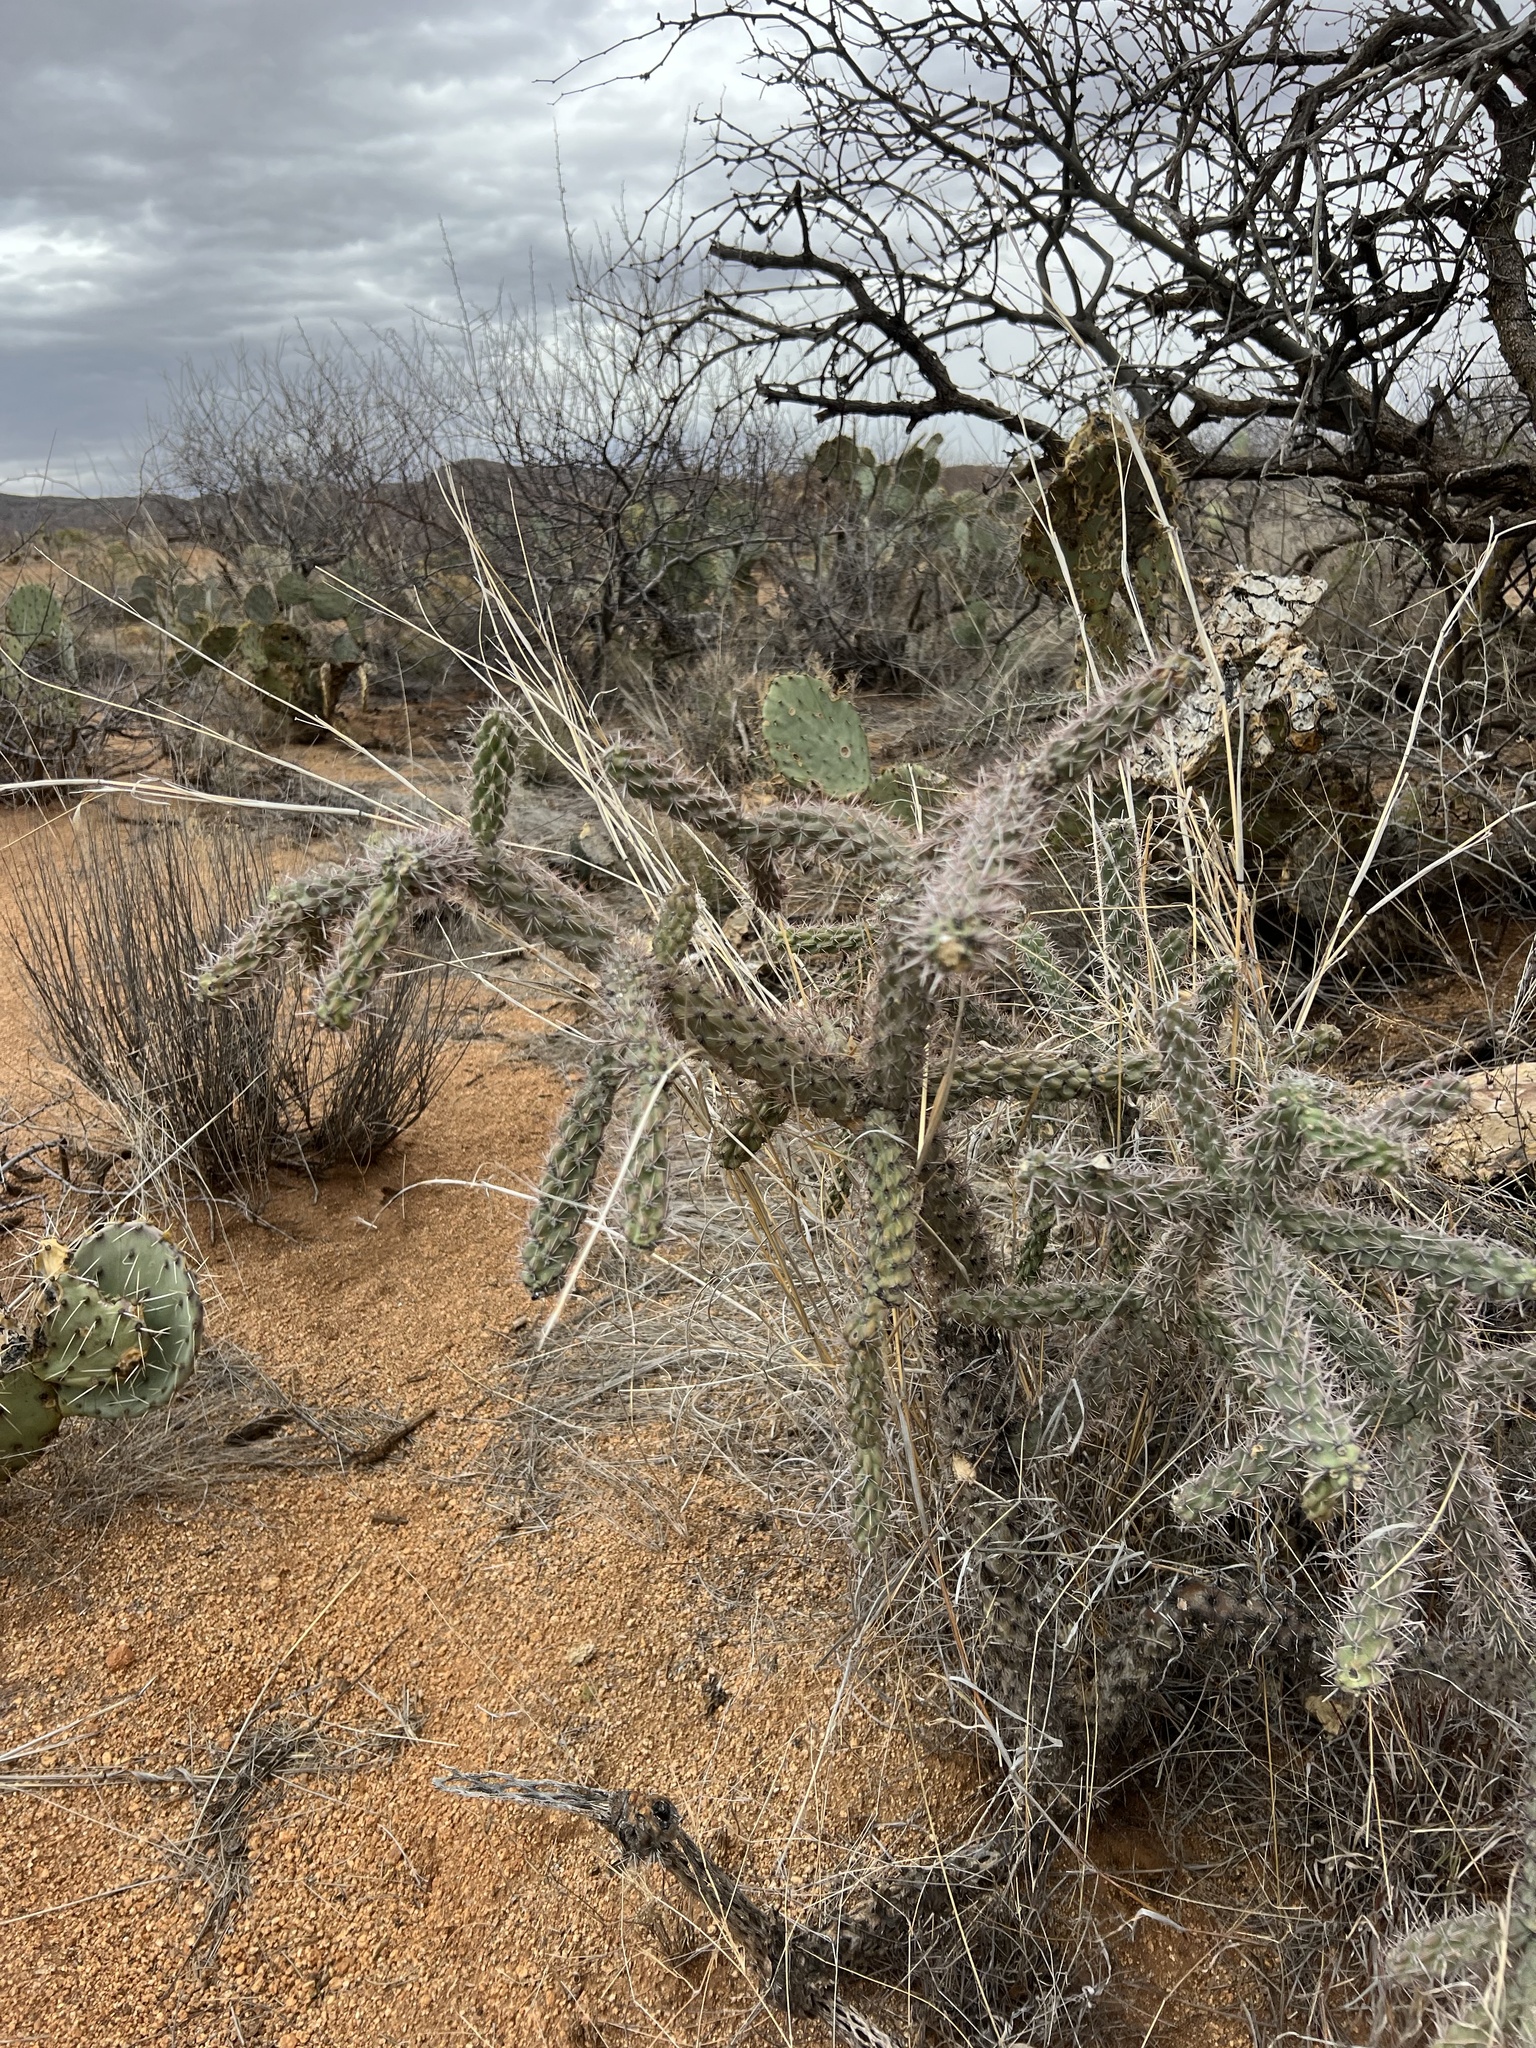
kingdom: Plantae
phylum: Tracheophyta
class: Magnoliopsida
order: Caryophyllales
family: Cactaceae
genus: Cylindropuntia
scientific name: Cylindropuntia imbricata
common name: Candelabrum cactus
